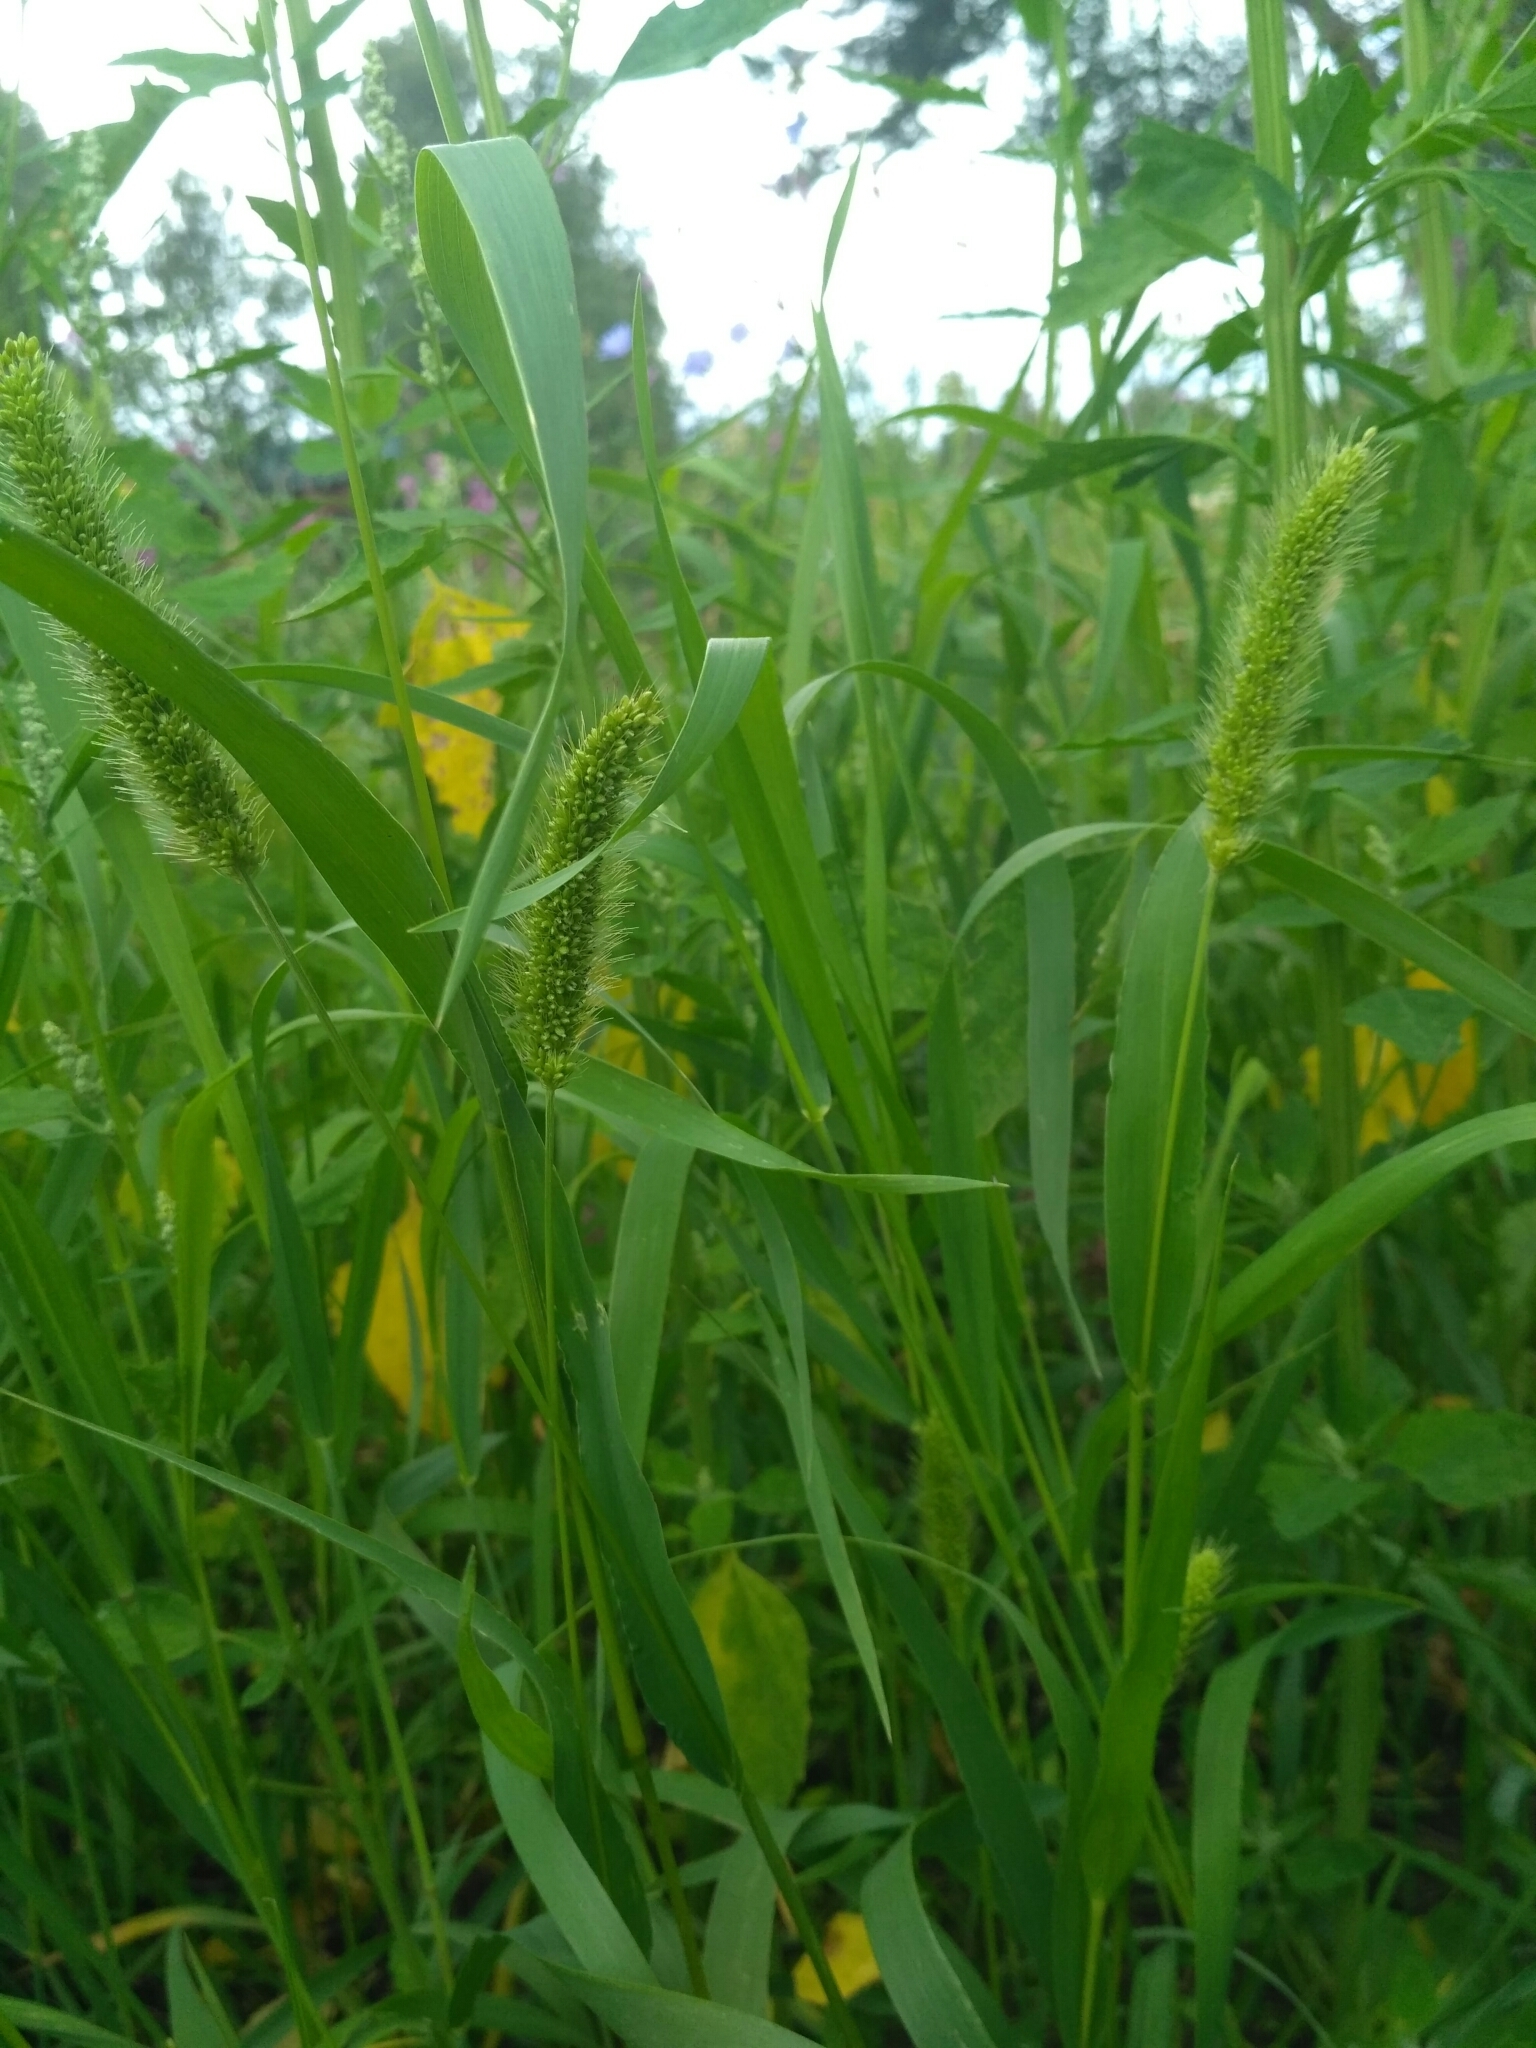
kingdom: Plantae
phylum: Tracheophyta
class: Liliopsida
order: Poales
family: Poaceae
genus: Setaria
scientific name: Setaria viridis
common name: Green bristlegrass
